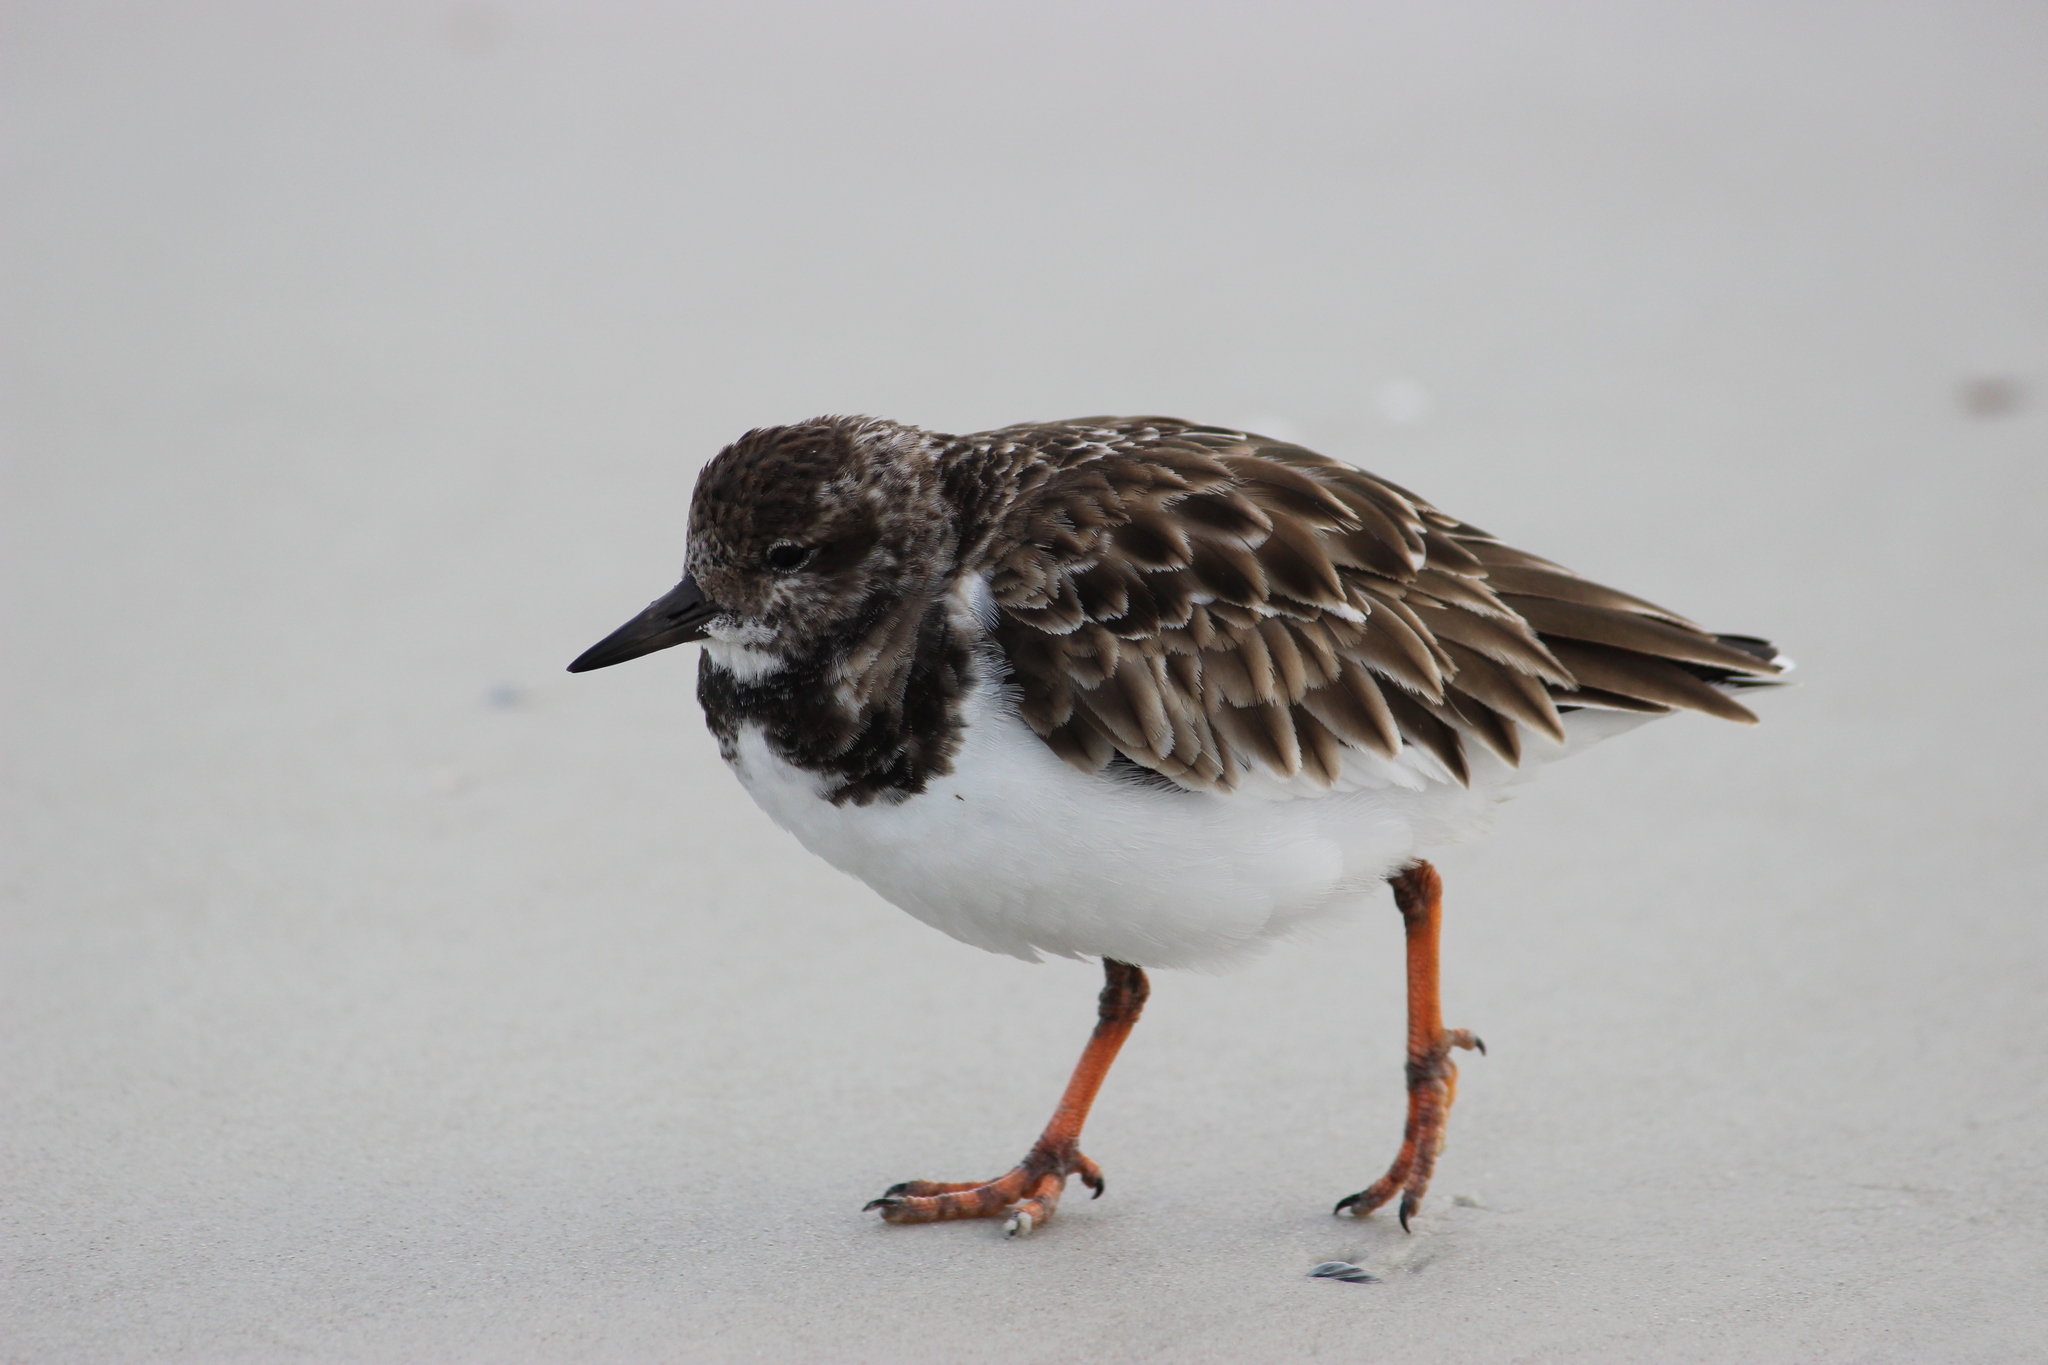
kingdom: Animalia
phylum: Chordata
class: Aves
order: Charadriiformes
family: Scolopacidae
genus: Arenaria
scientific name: Arenaria interpres
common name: Ruddy turnstone
